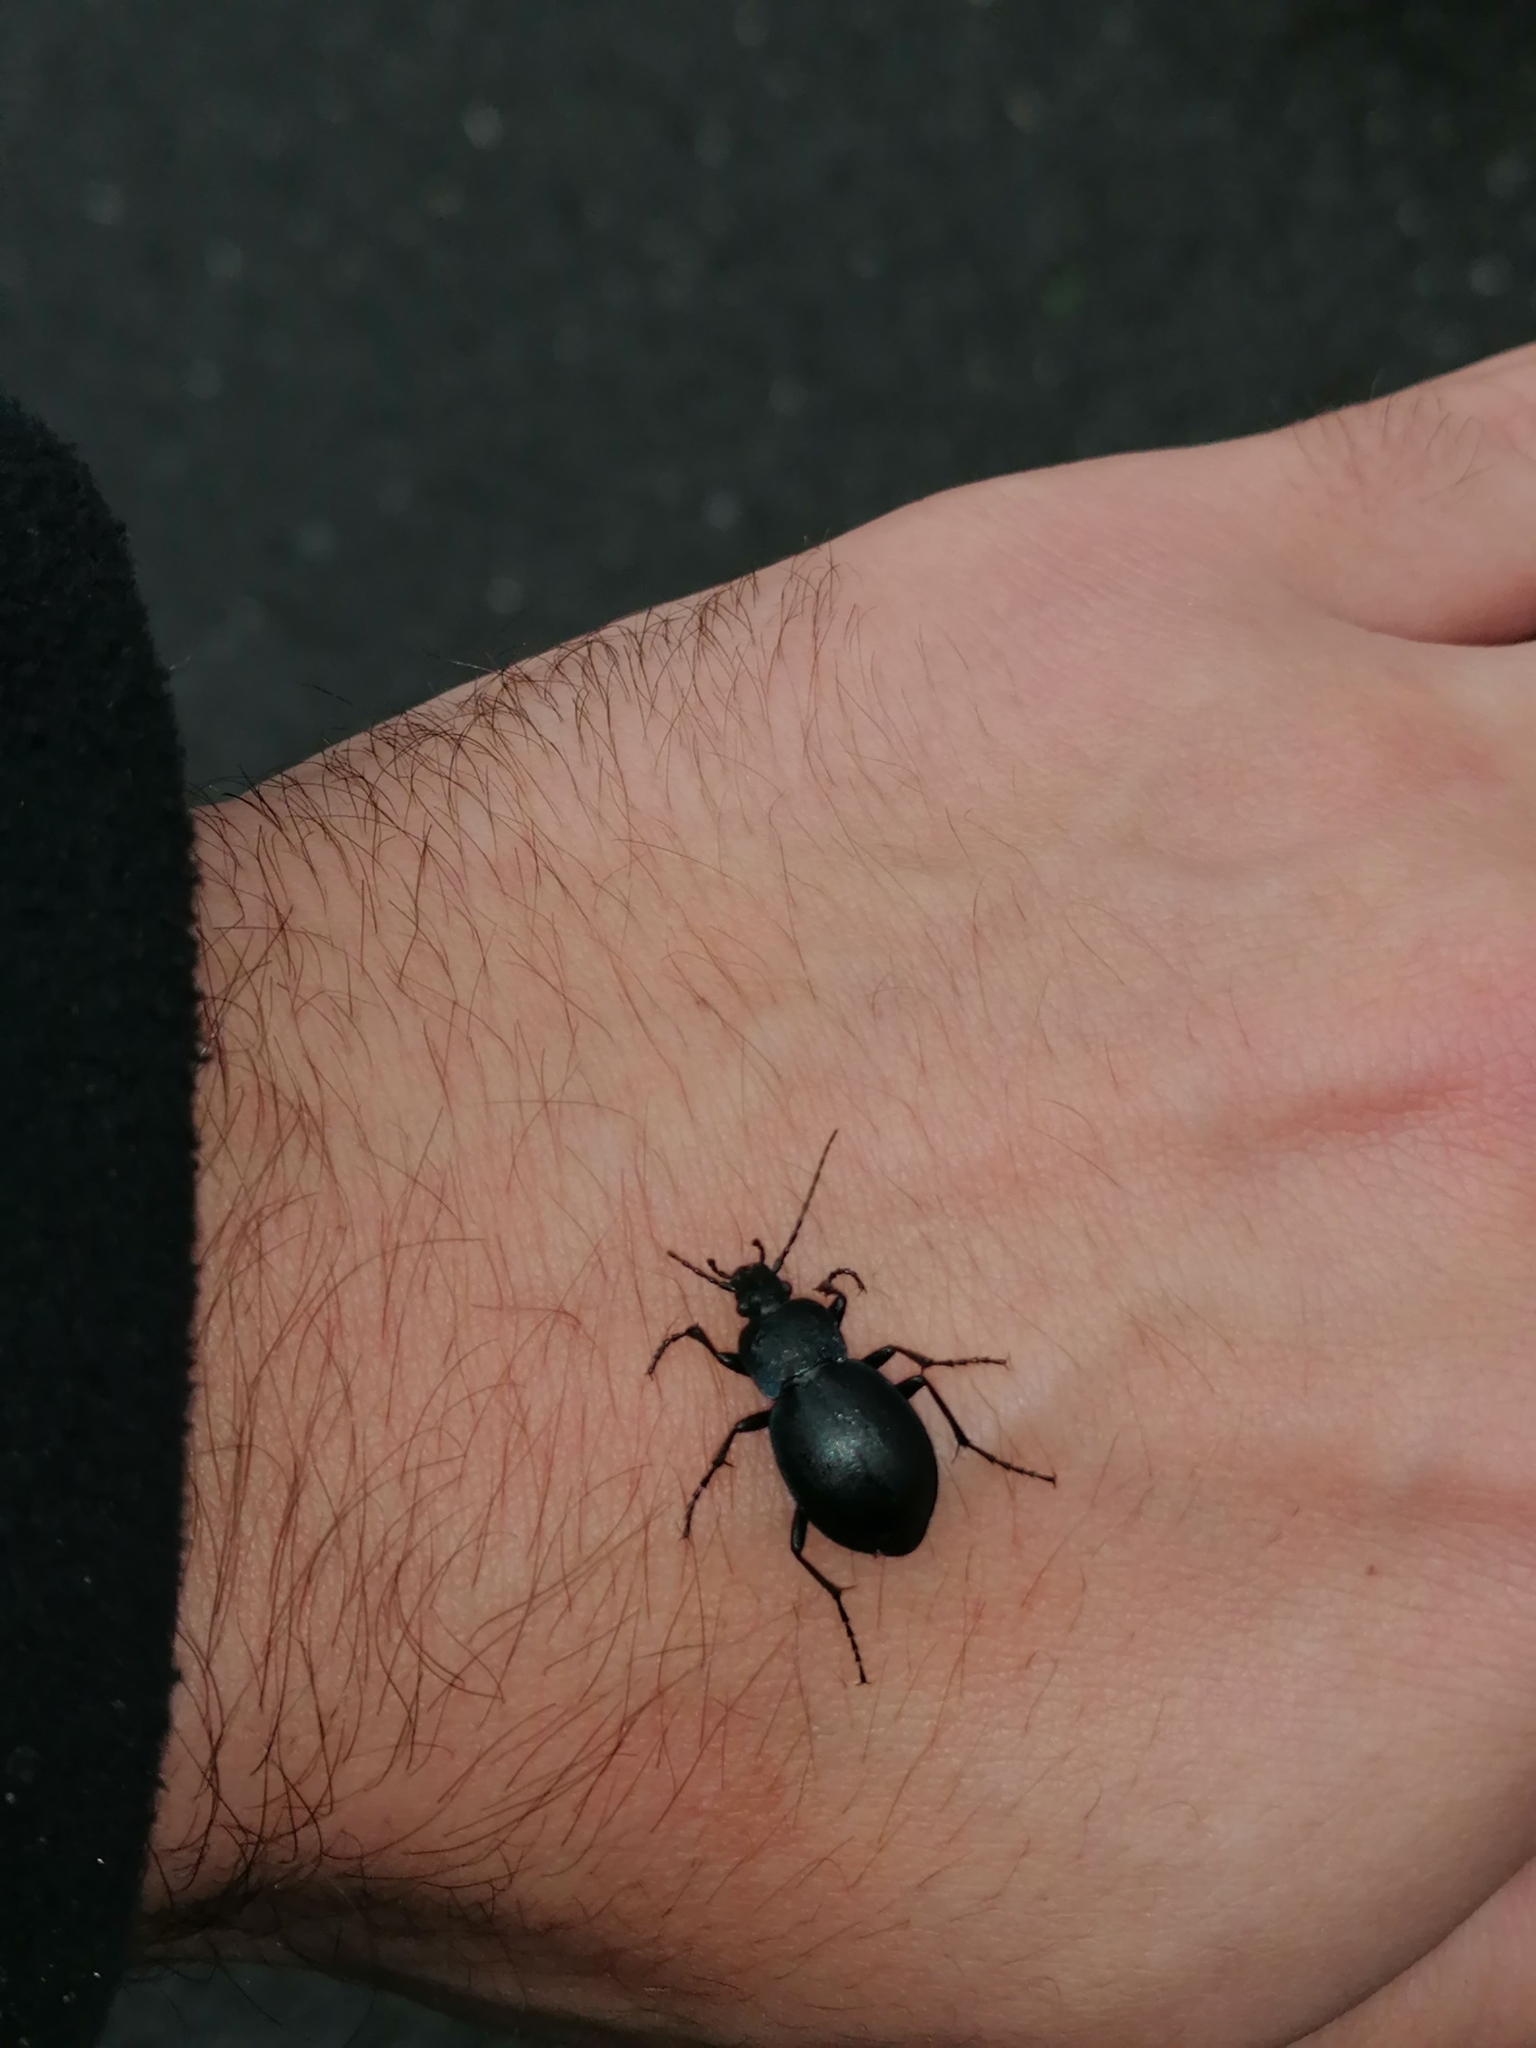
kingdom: Animalia
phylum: Arthropoda
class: Insecta
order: Coleoptera
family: Carabidae
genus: Carabus
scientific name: Carabus convexus
